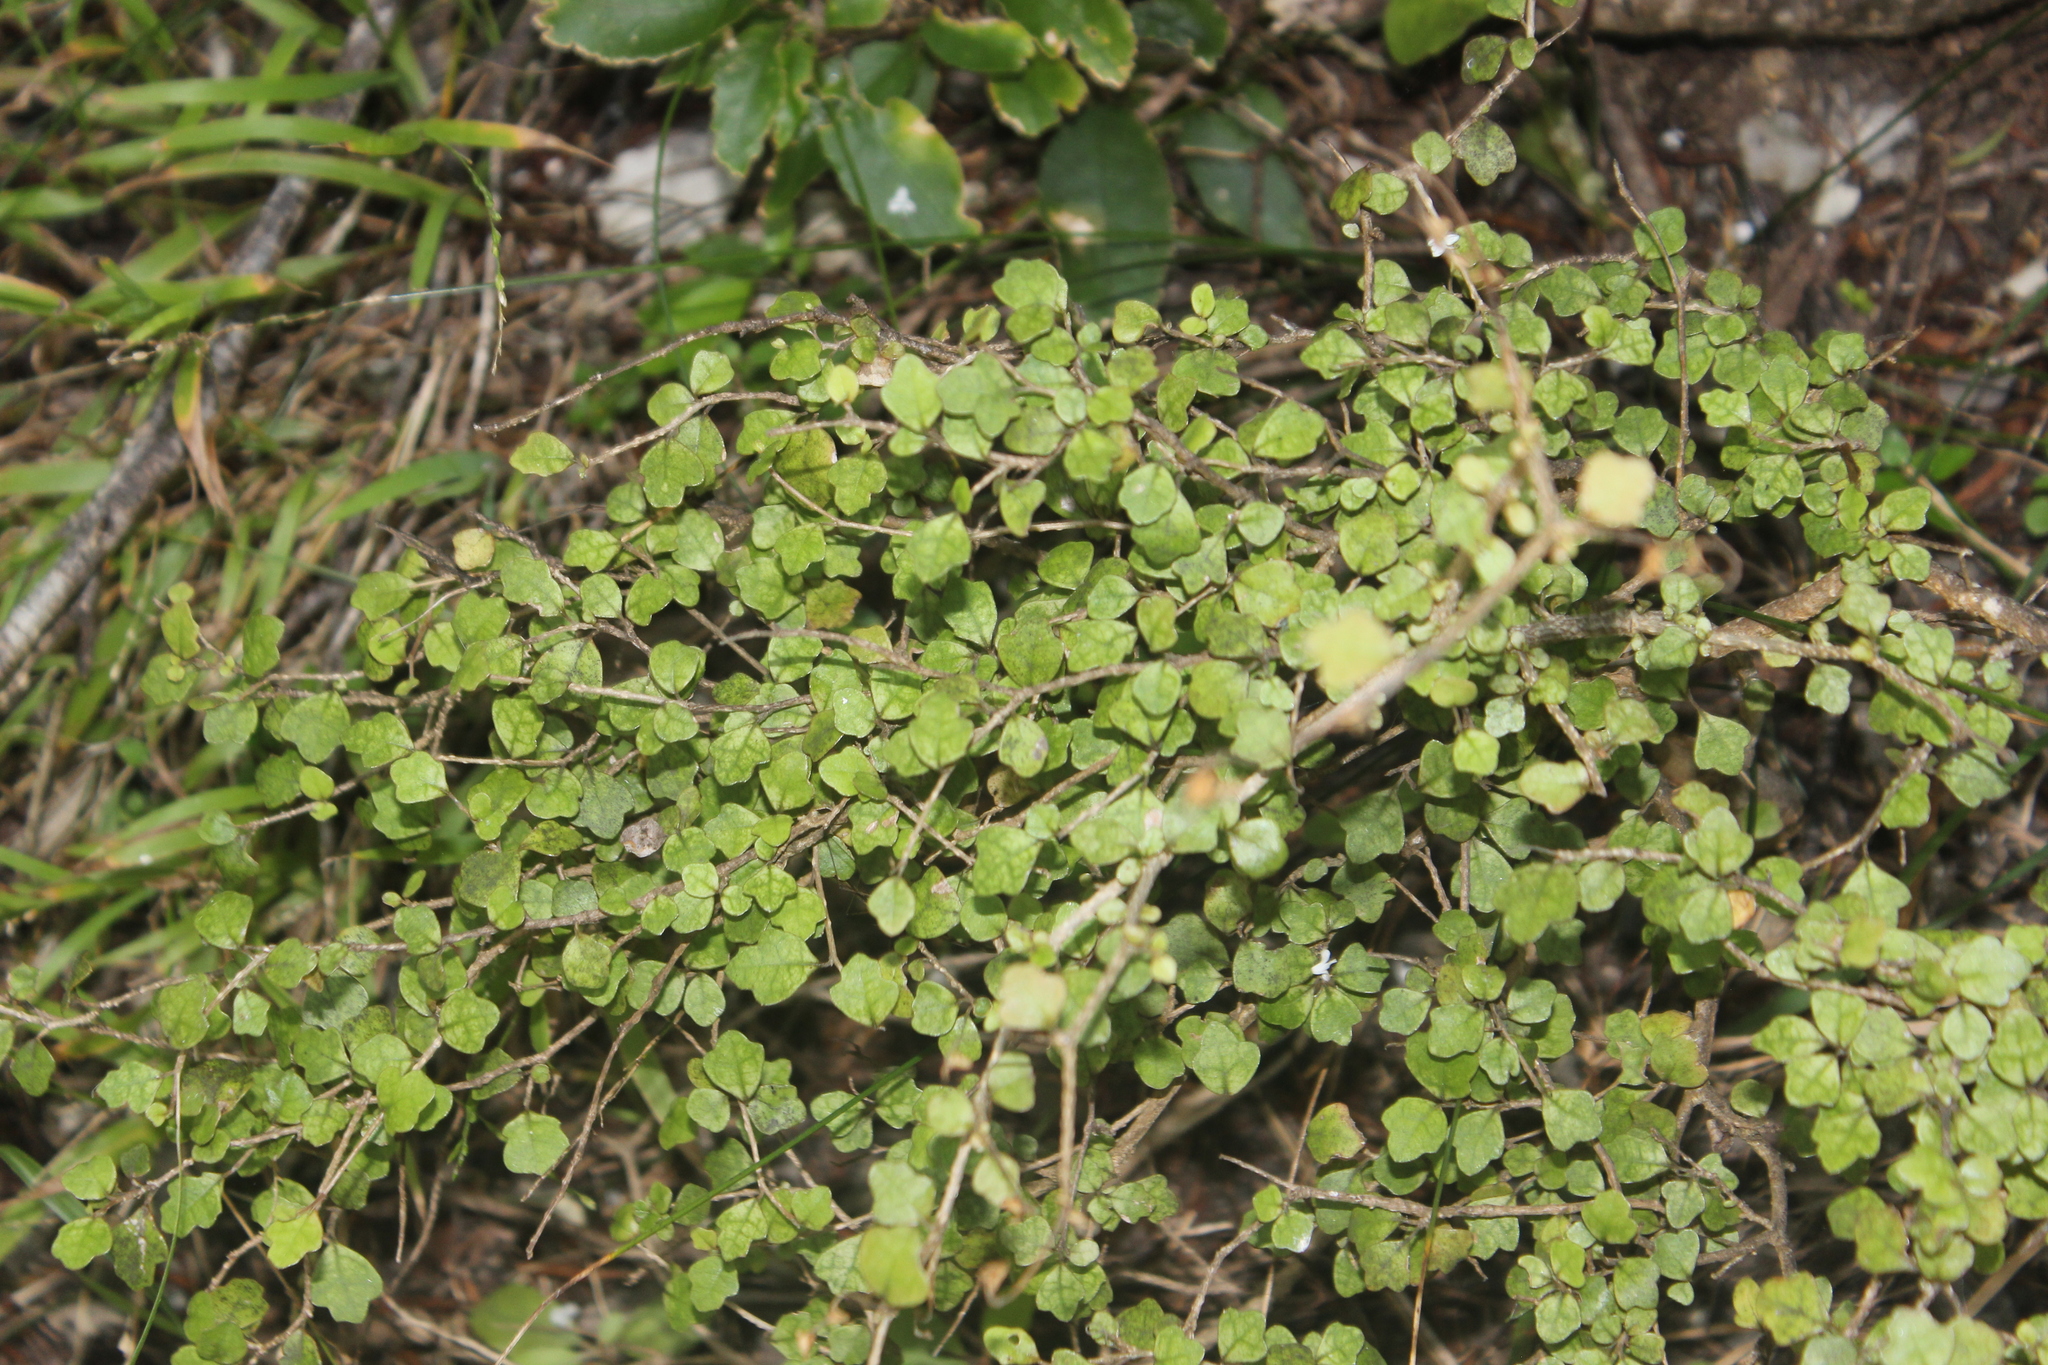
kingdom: Plantae
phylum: Tracheophyta
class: Magnoliopsida
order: Apiales
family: Pennantiaceae
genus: Pennantia
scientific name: Pennantia corymbosa
